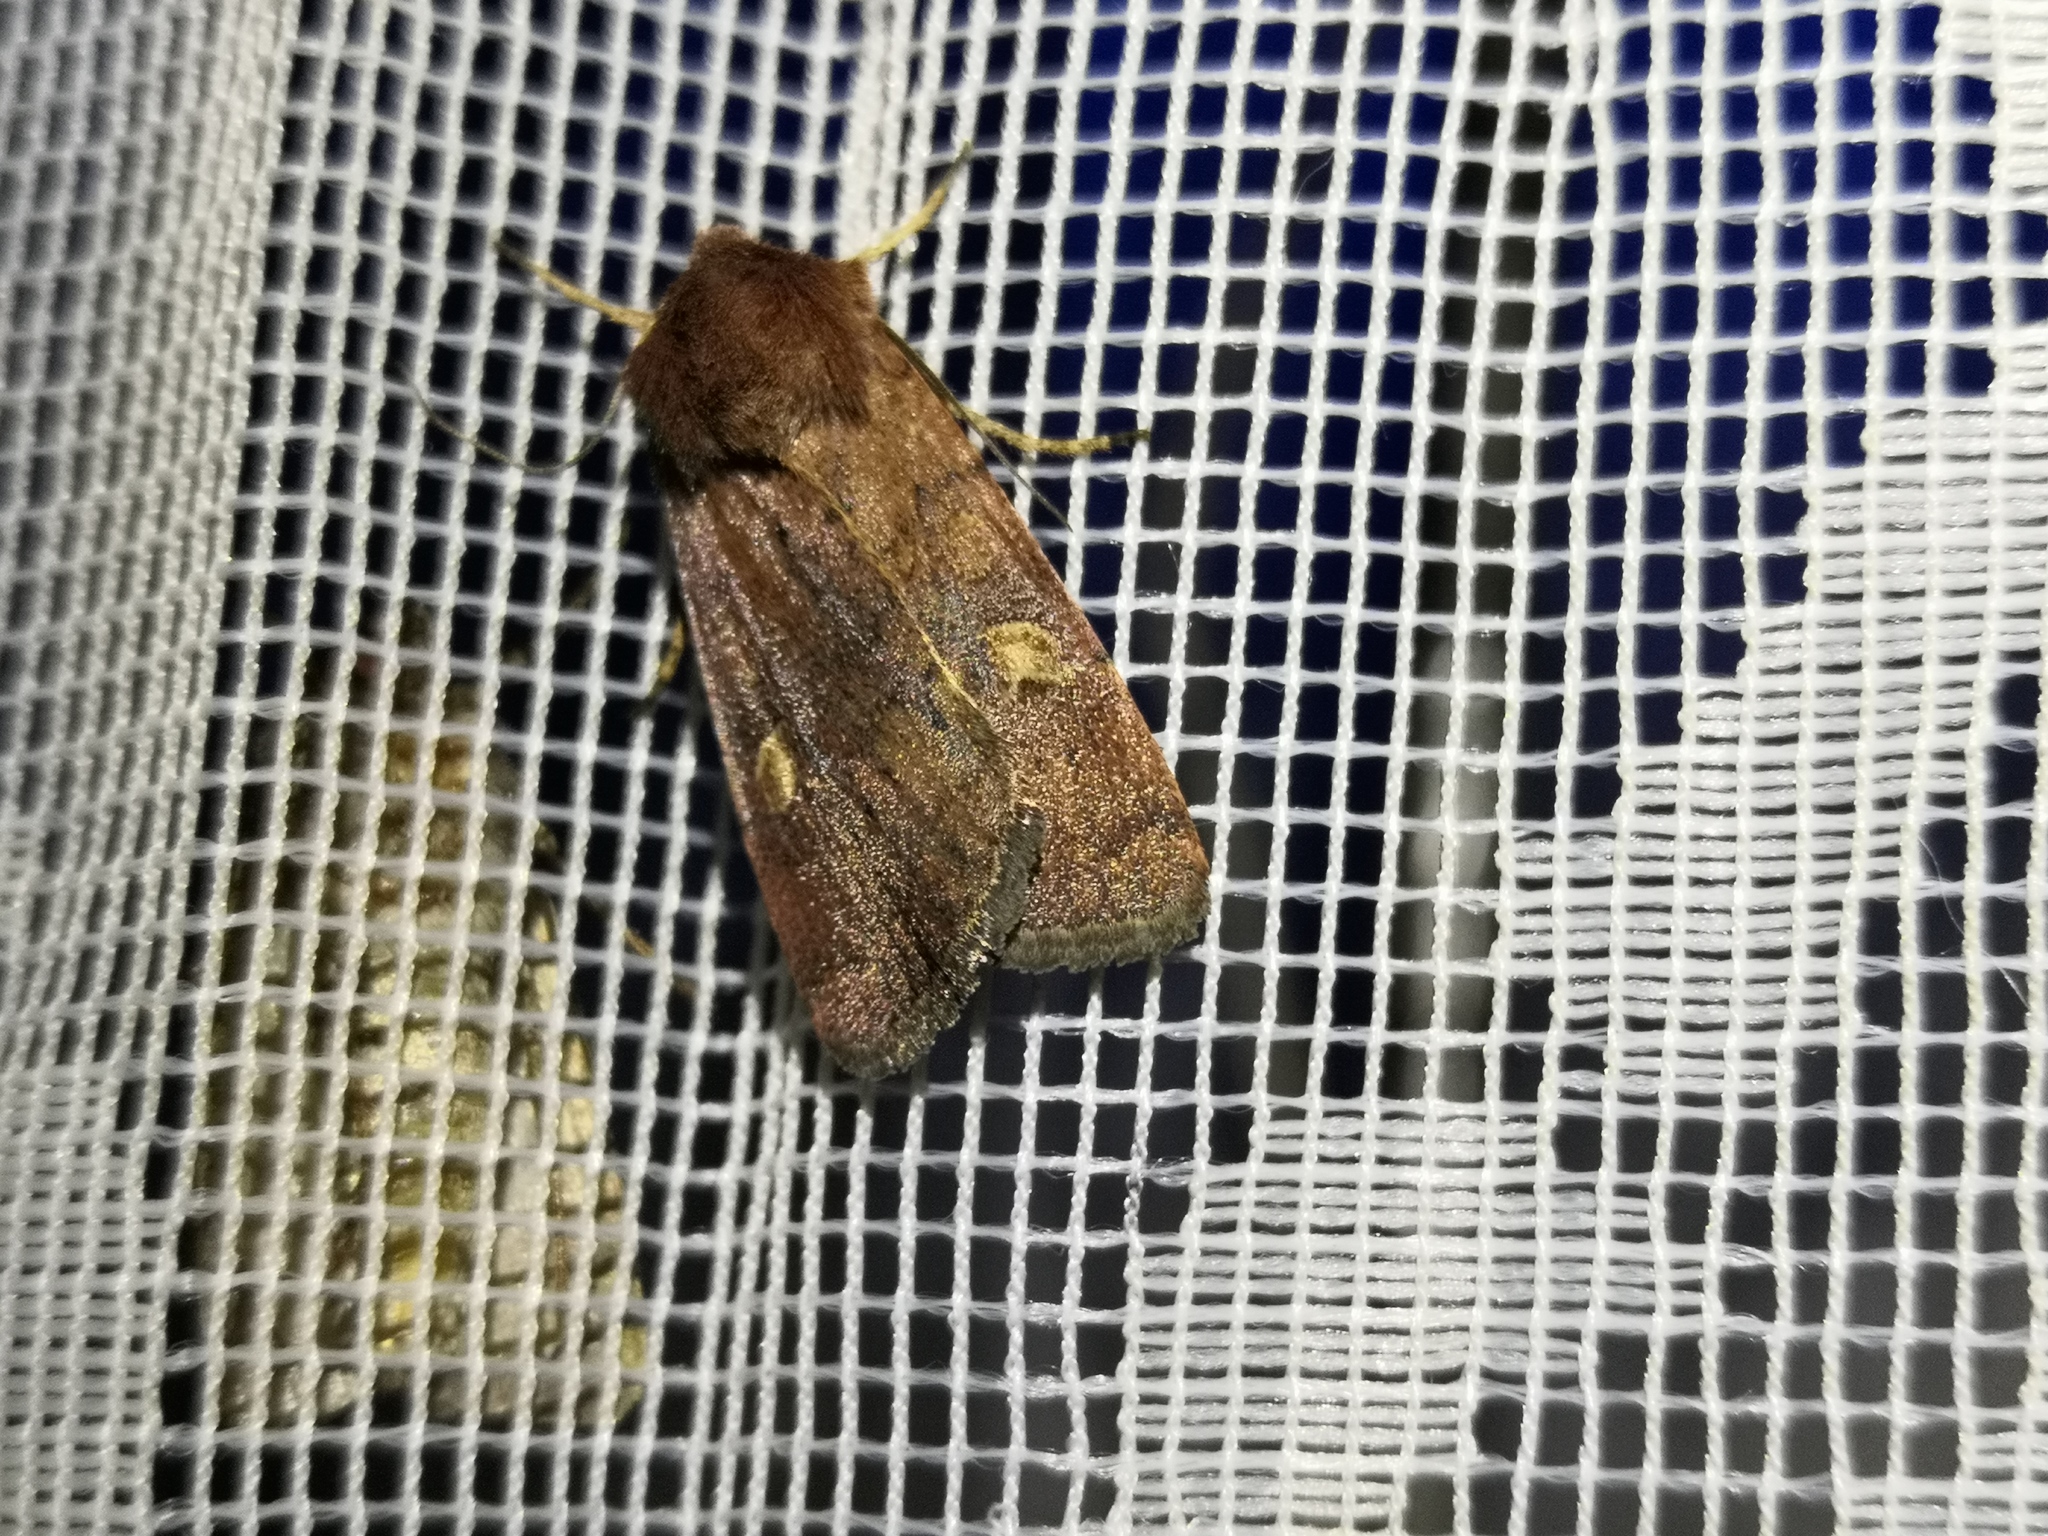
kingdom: Animalia
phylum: Arthropoda
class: Insecta
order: Lepidoptera
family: Noctuidae
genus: Xestia
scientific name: Xestia xanthographa
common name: Square-spot rustic
